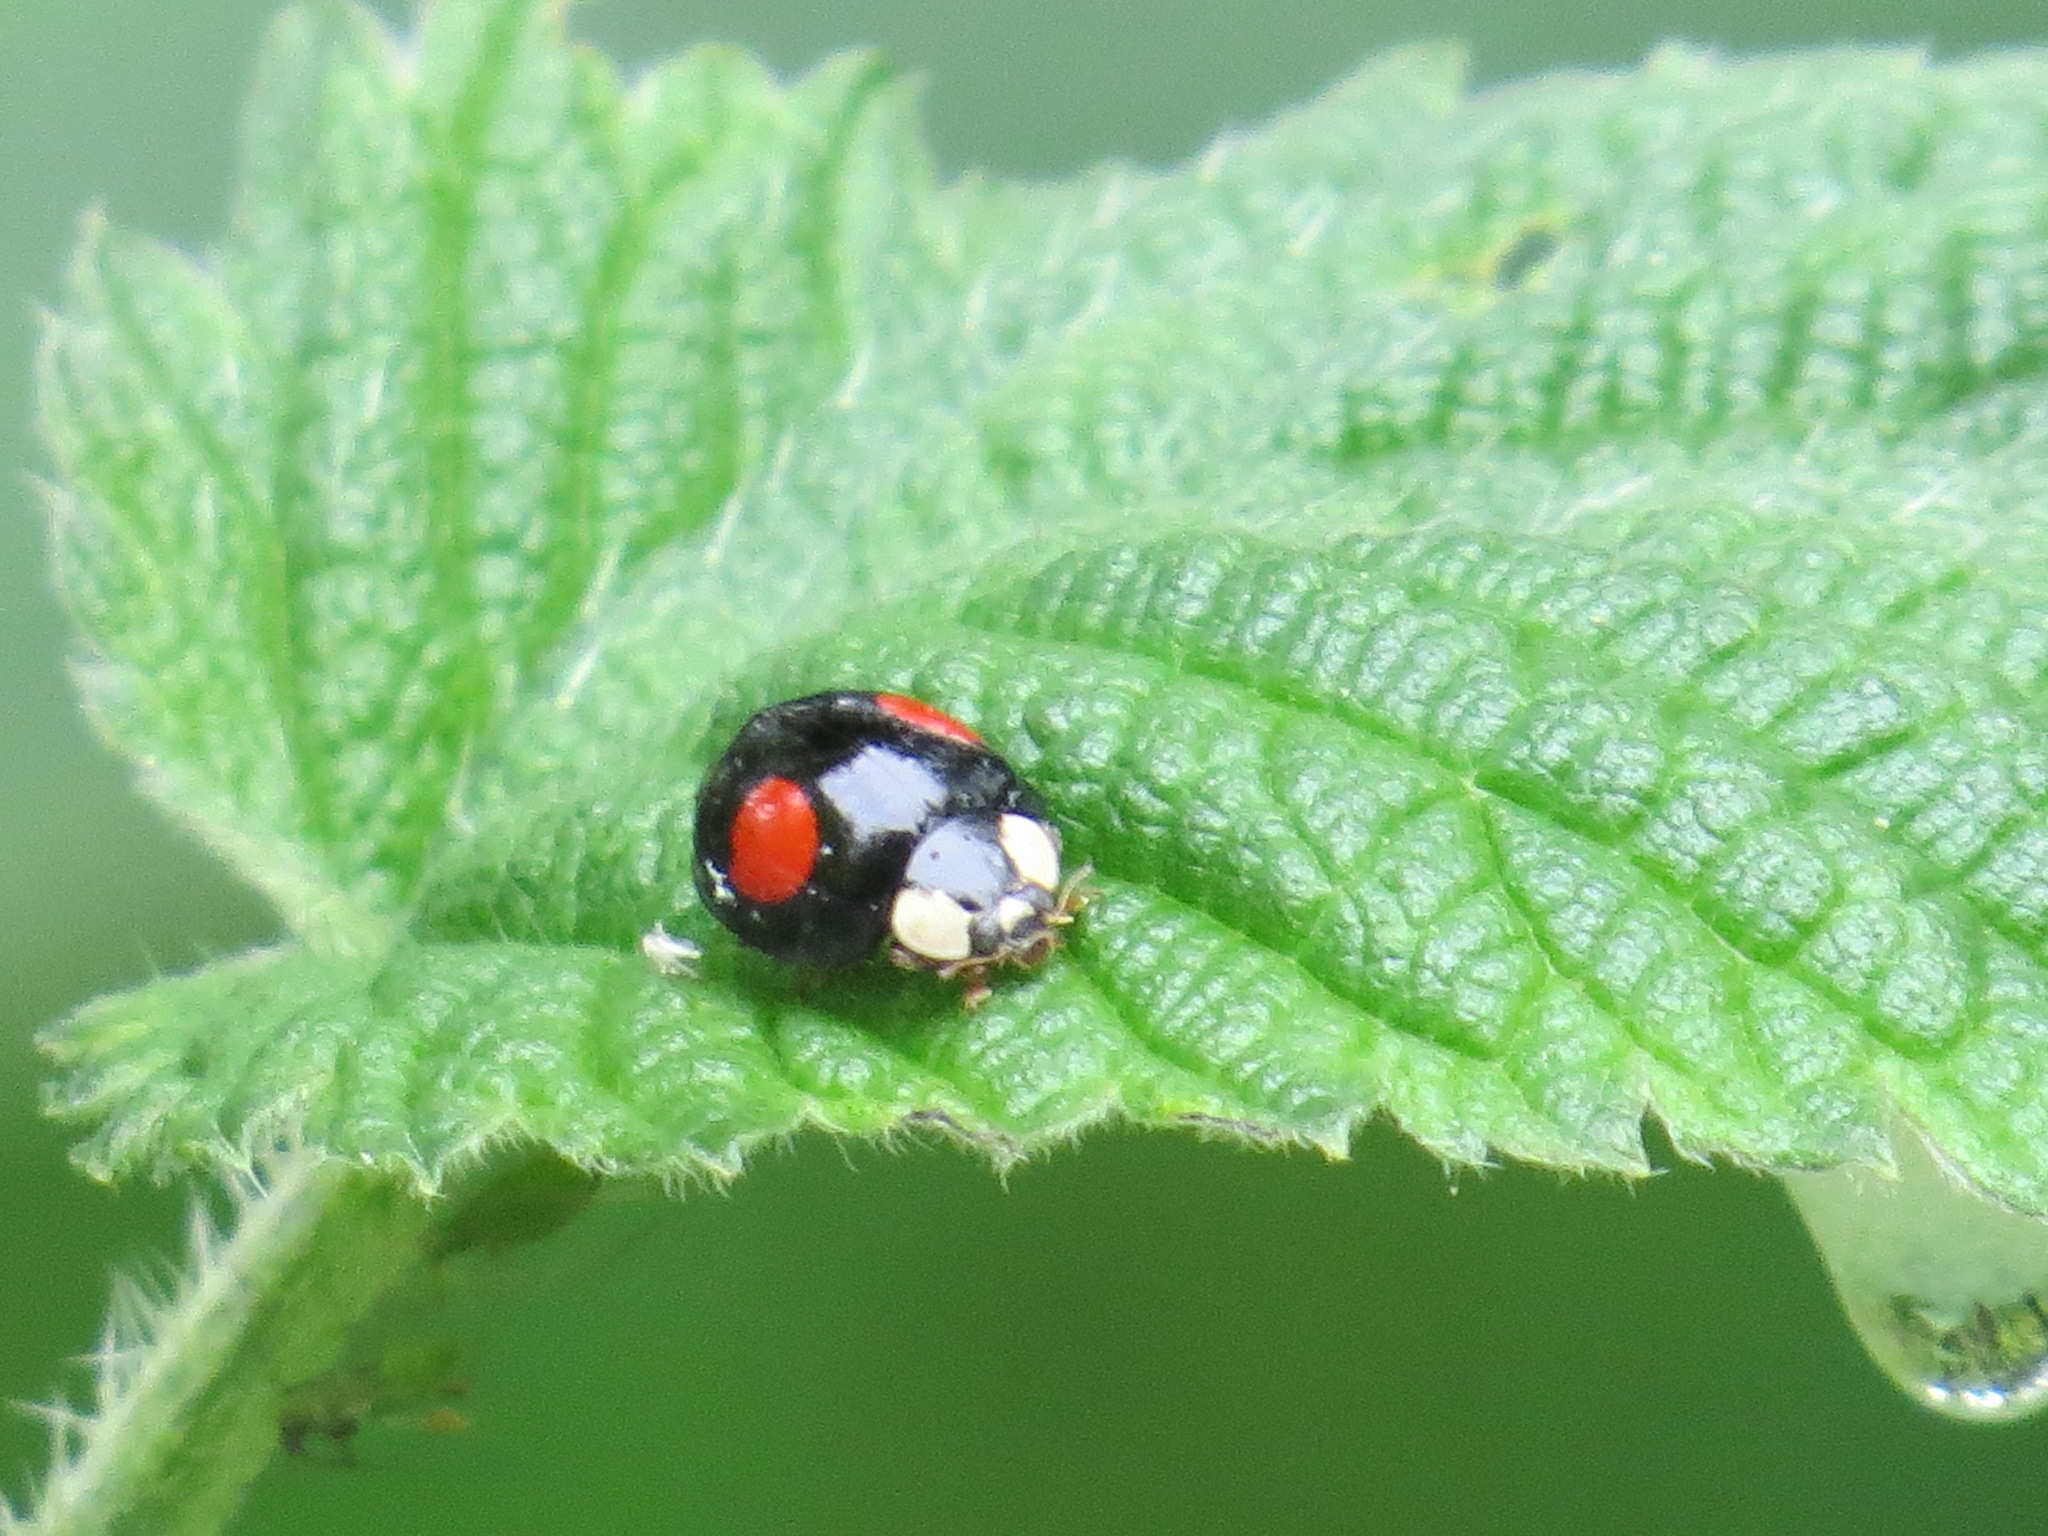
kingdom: Animalia
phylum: Arthropoda
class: Insecta
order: Coleoptera
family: Coccinellidae
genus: Harmonia
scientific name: Harmonia axyridis
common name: Harlequin ladybird
